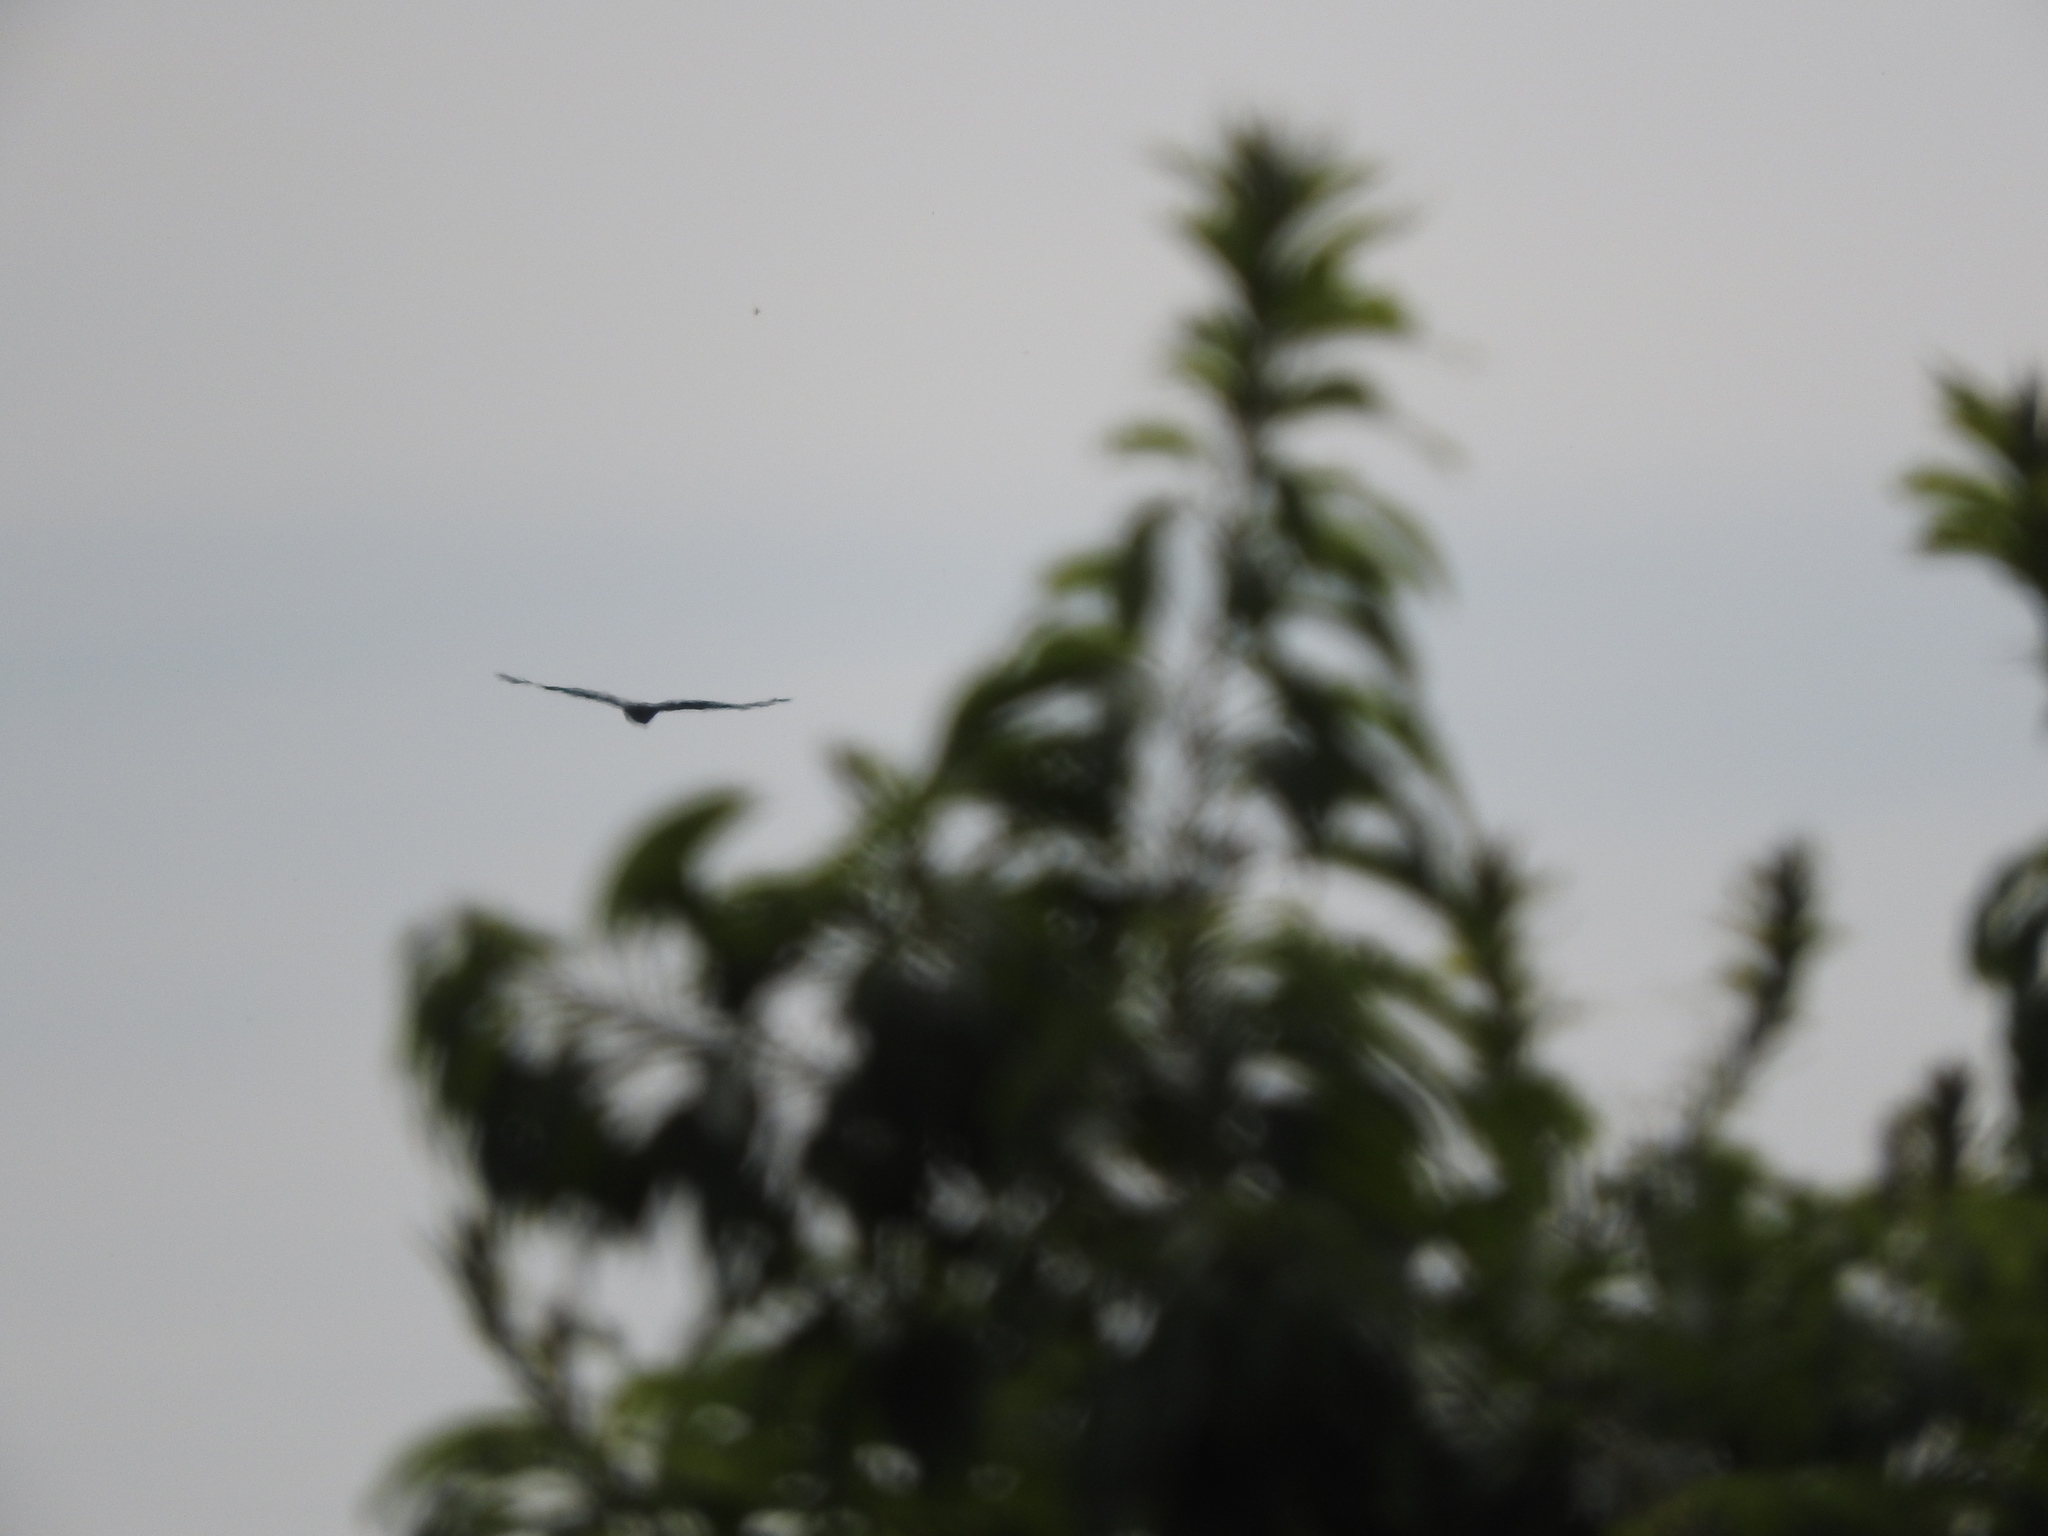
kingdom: Animalia
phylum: Chordata
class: Aves
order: Accipitriformes
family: Cathartidae
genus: Cathartes
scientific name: Cathartes aura
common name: Turkey vulture
